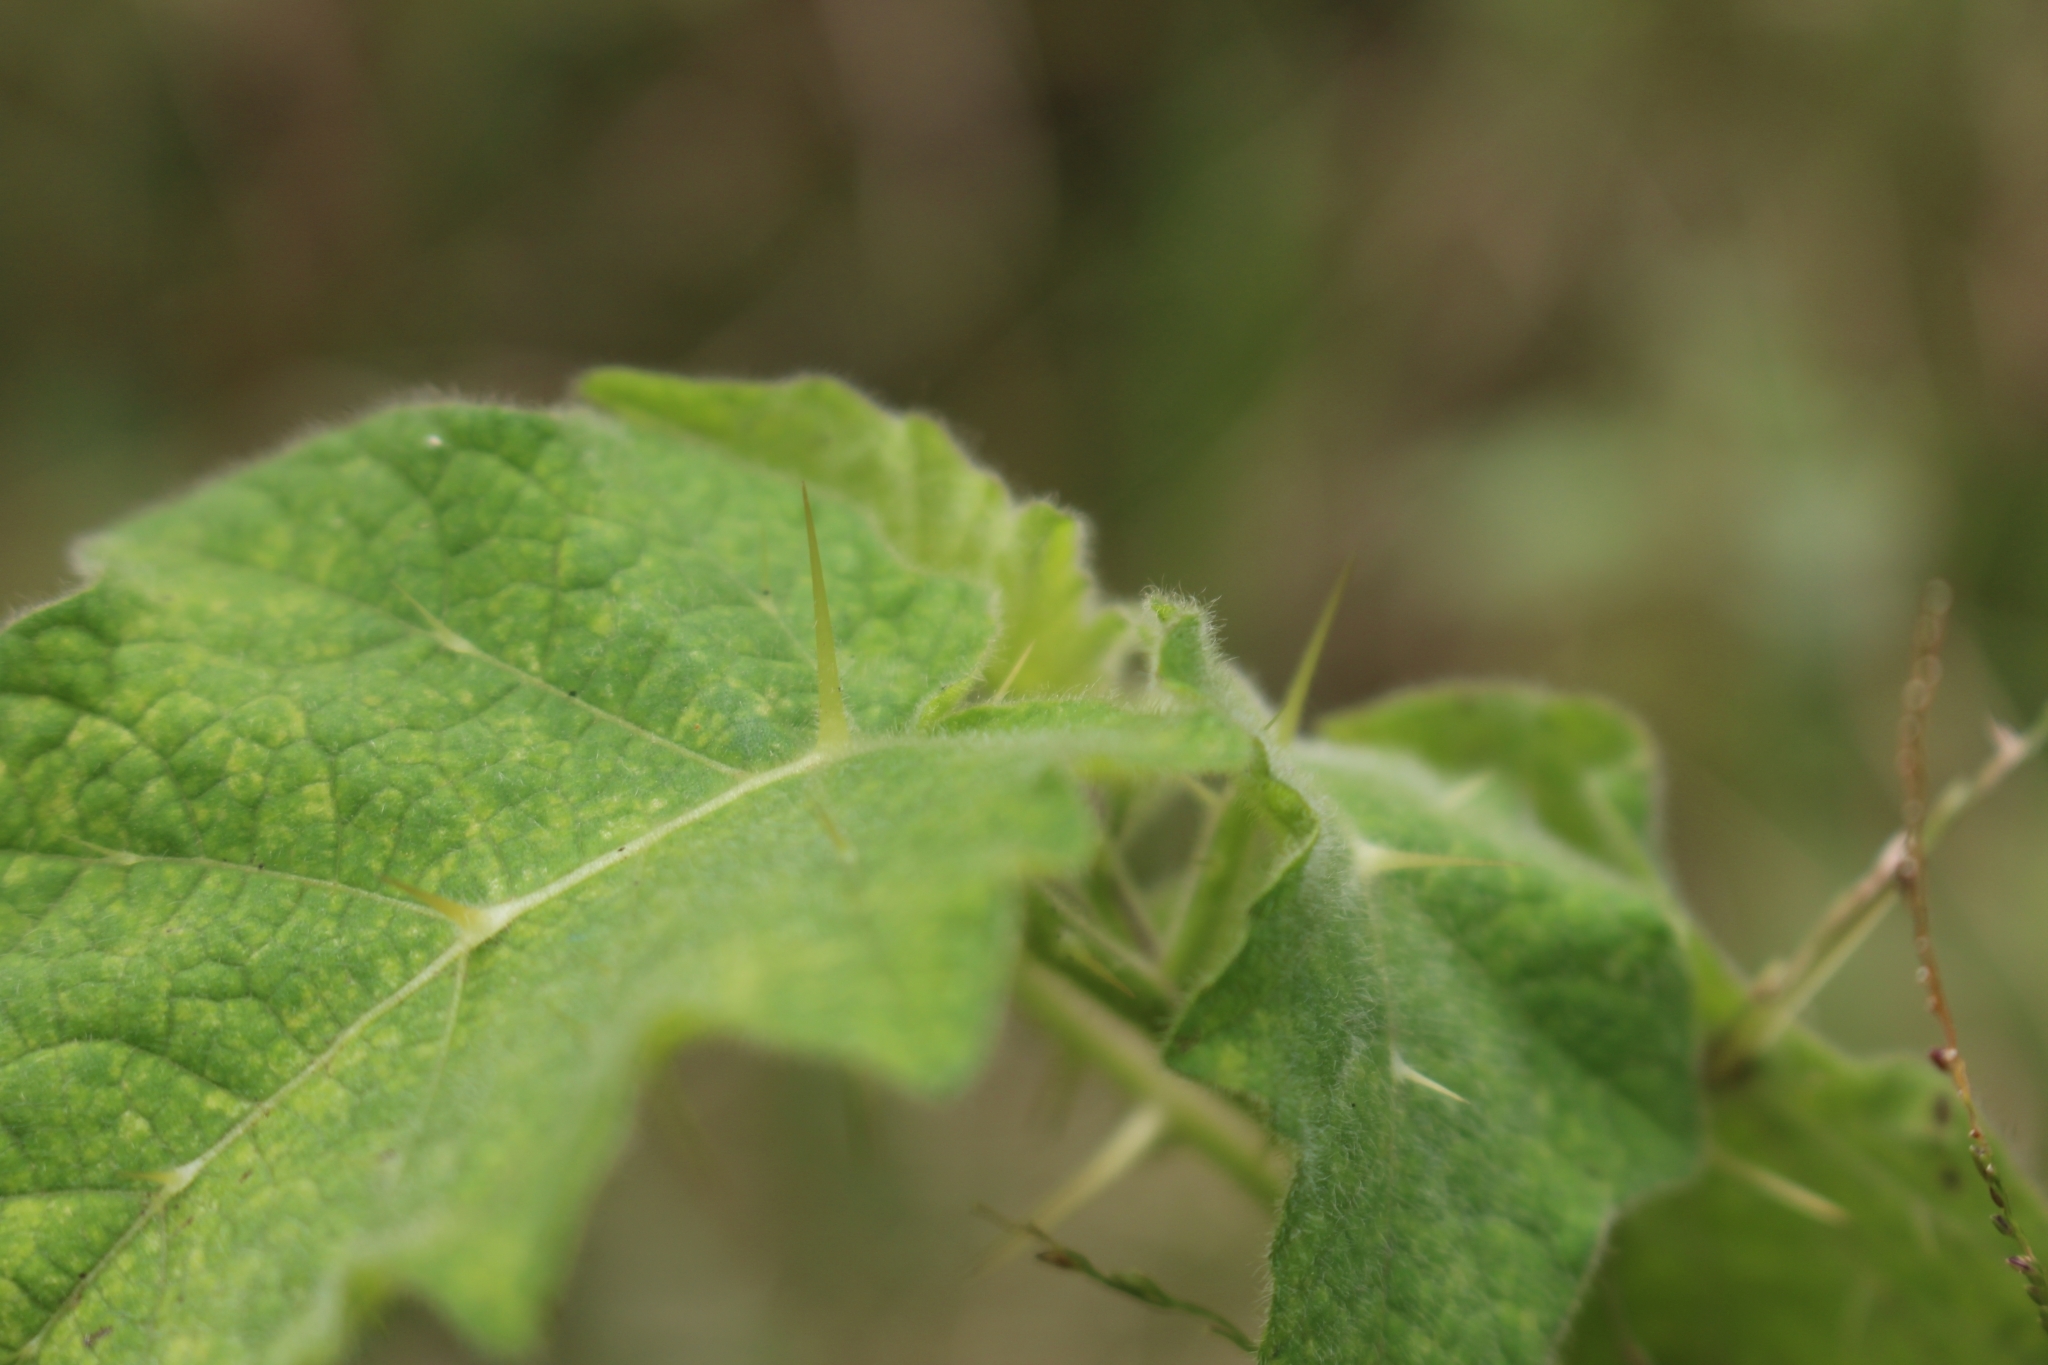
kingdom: Plantae
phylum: Tracheophyta
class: Magnoliopsida
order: Solanales
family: Solanaceae
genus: Solanum
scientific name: Solanum viarum
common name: Tropical soda apple
